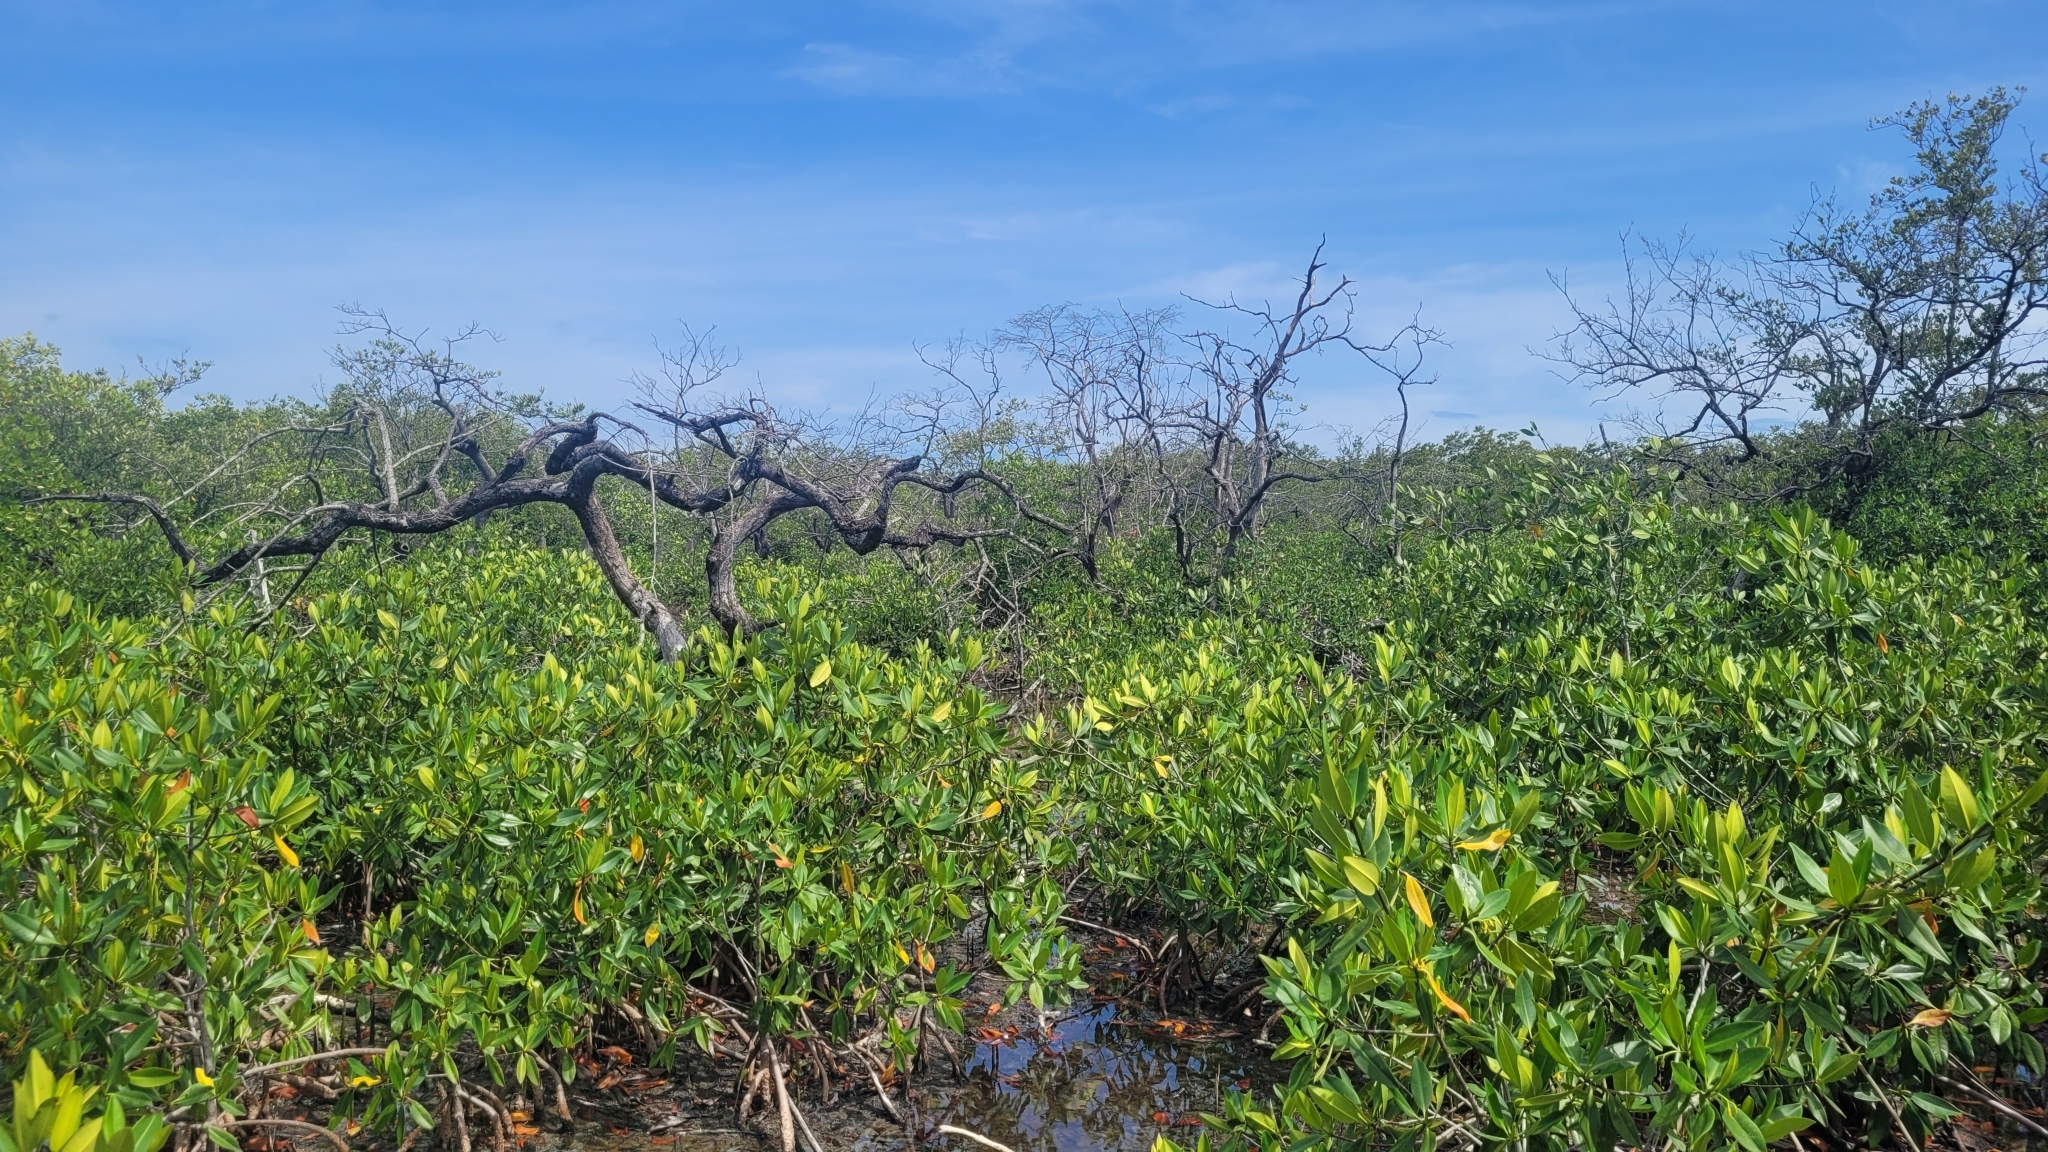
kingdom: Plantae
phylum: Tracheophyta
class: Magnoliopsida
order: Malpighiales
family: Rhizophoraceae
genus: Rhizophora
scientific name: Rhizophora mangle
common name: Red mangrove
